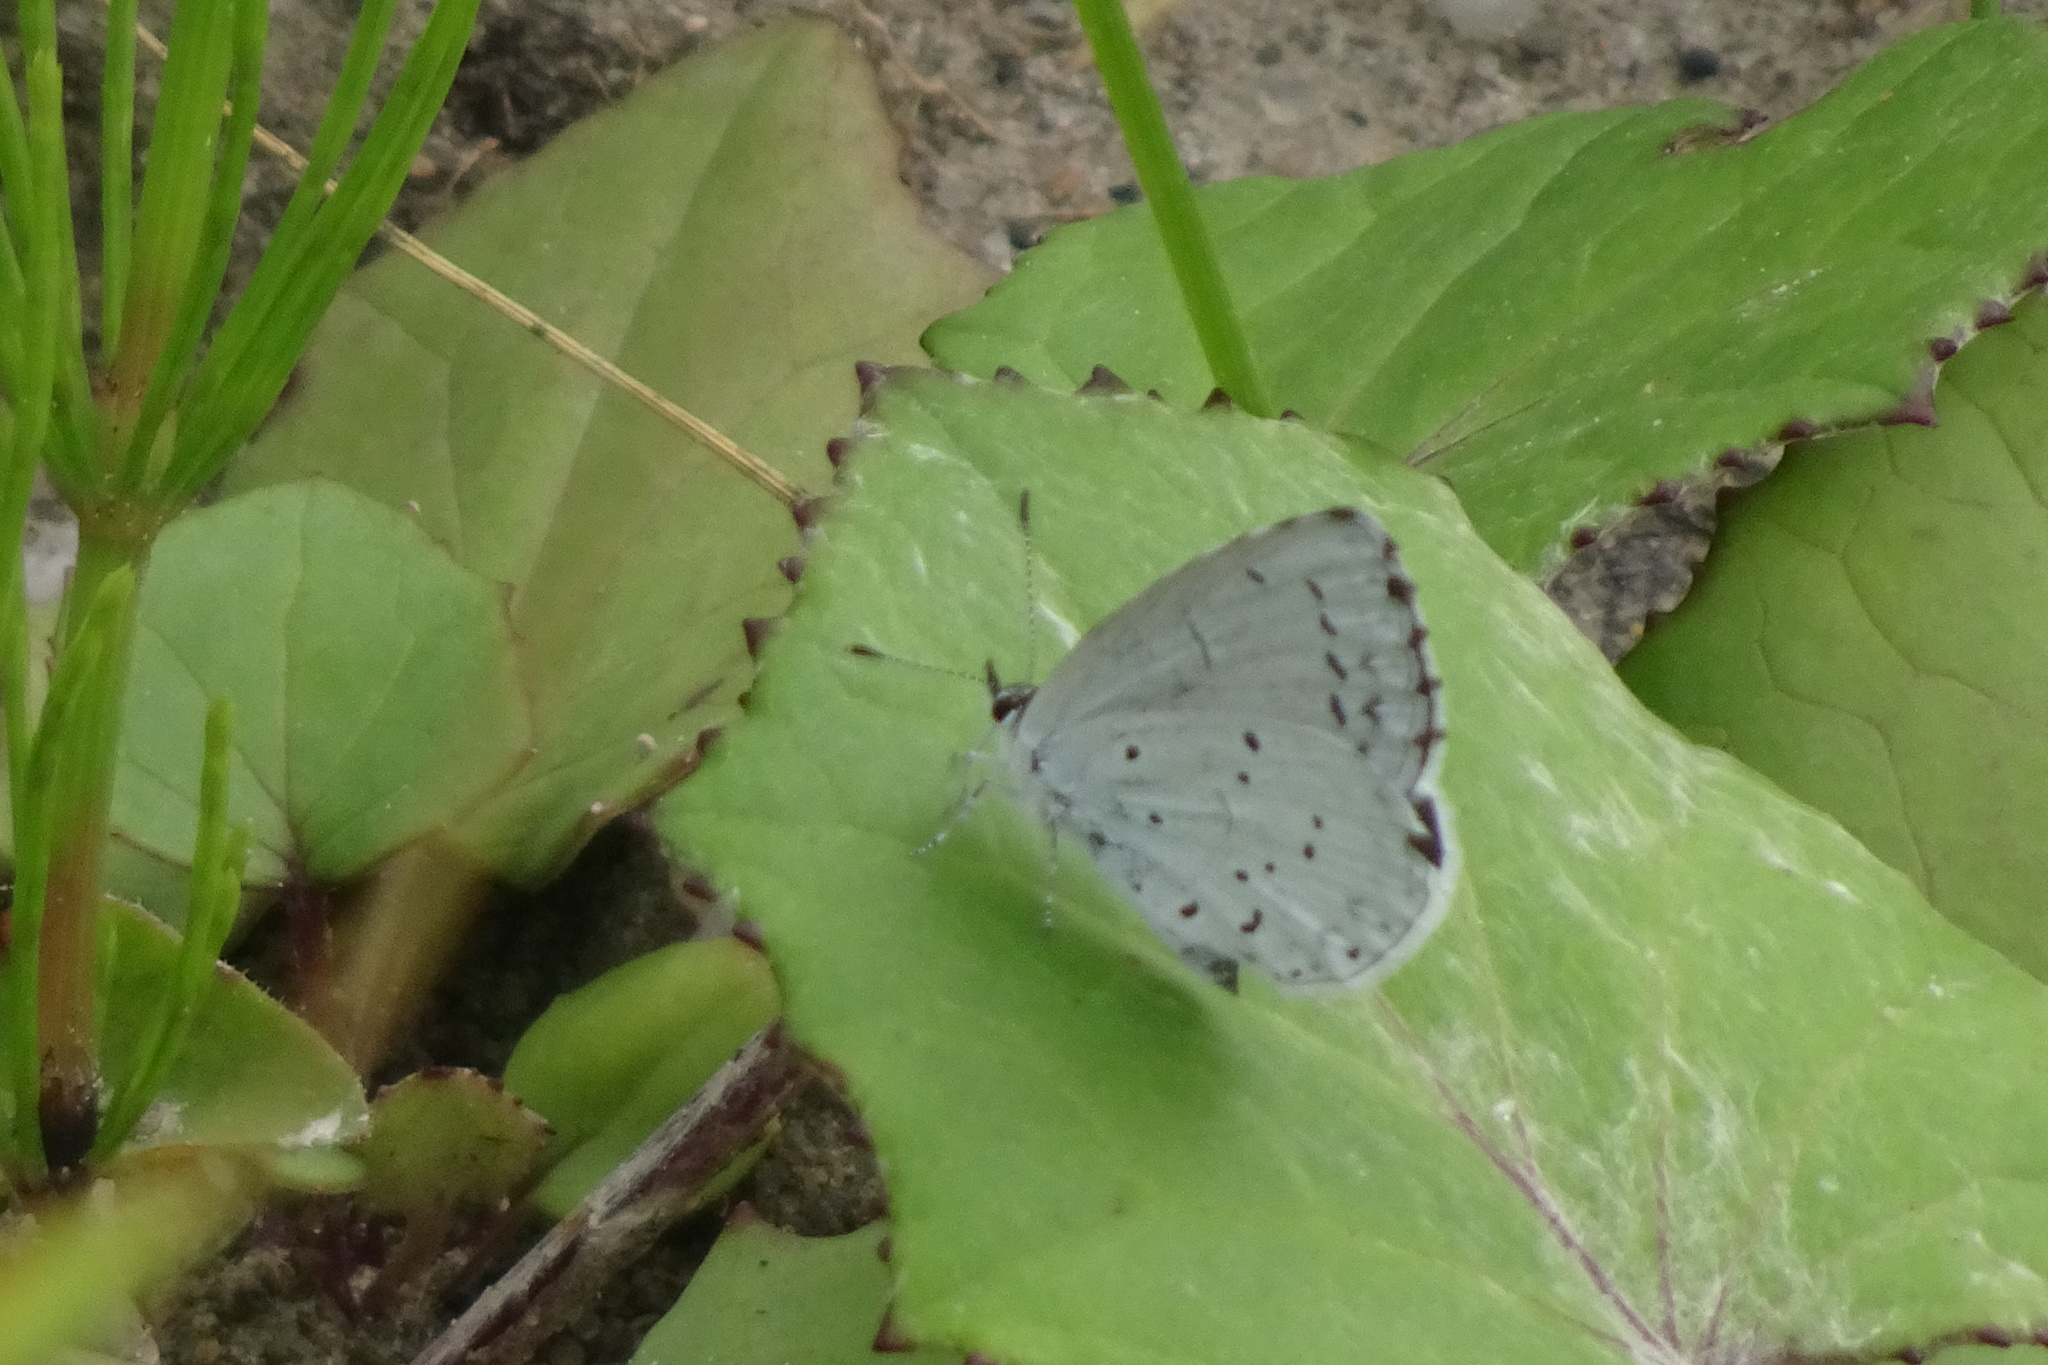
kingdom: Animalia
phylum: Arthropoda
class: Insecta
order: Lepidoptera
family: Lycaenidae
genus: Celastrina
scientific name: Celastrina argiolus
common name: Holly blue
